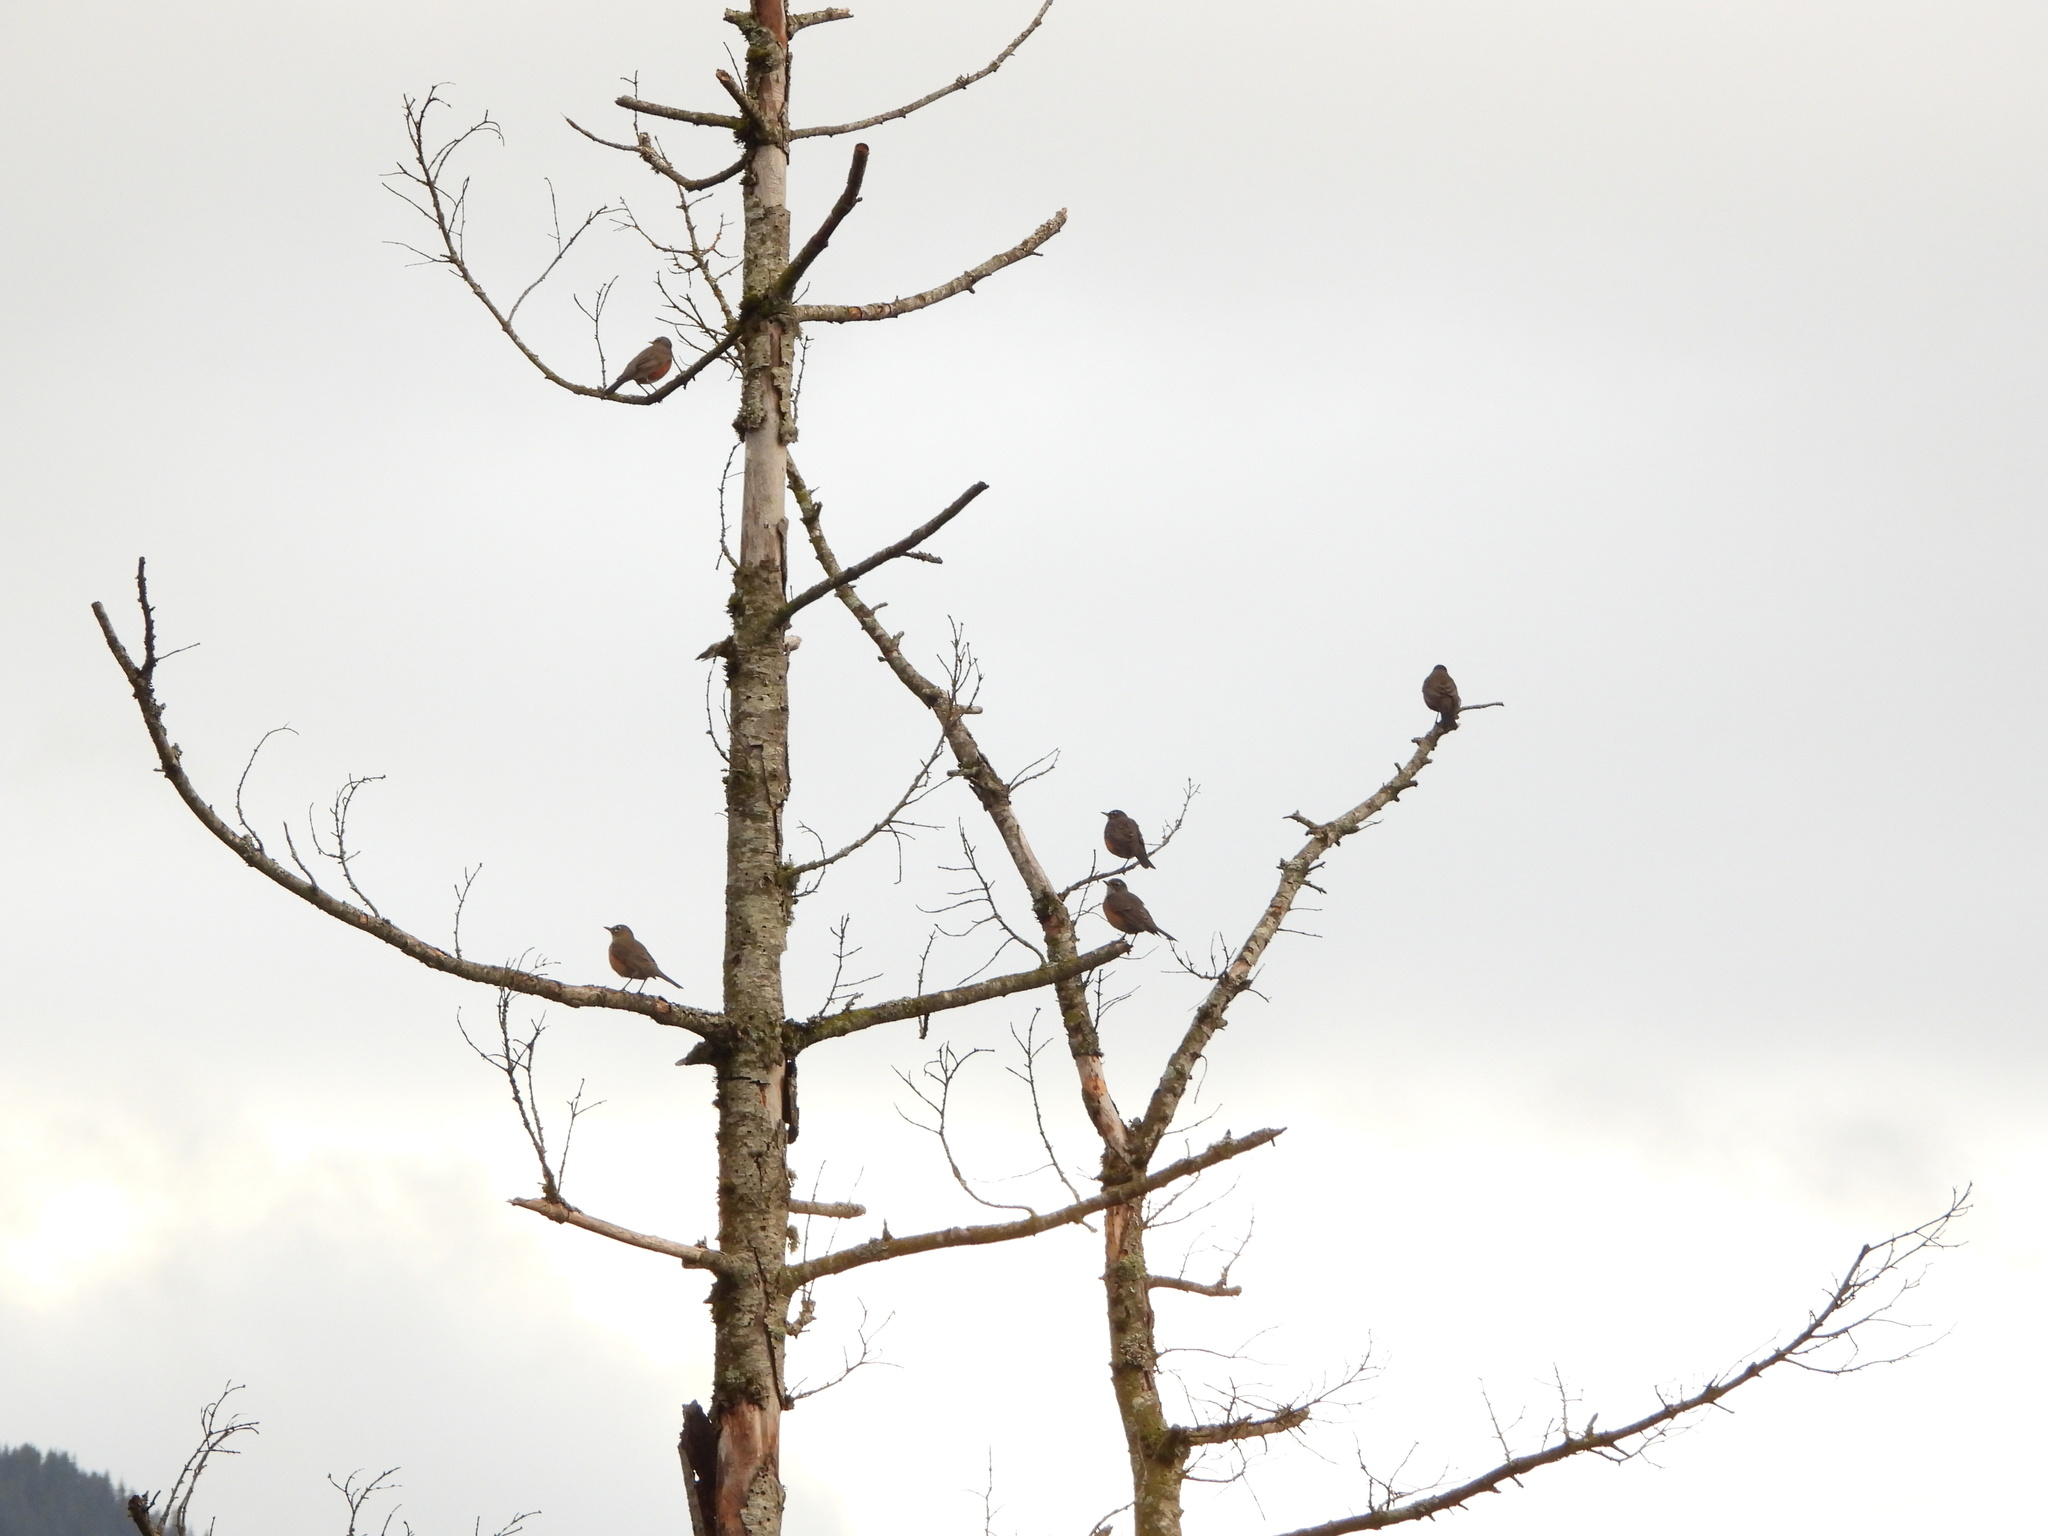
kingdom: Animalia
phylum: Chordata
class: Aves
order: Passeriformes
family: Turdidae
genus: Turdus
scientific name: Turdus migratorius
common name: American robin
